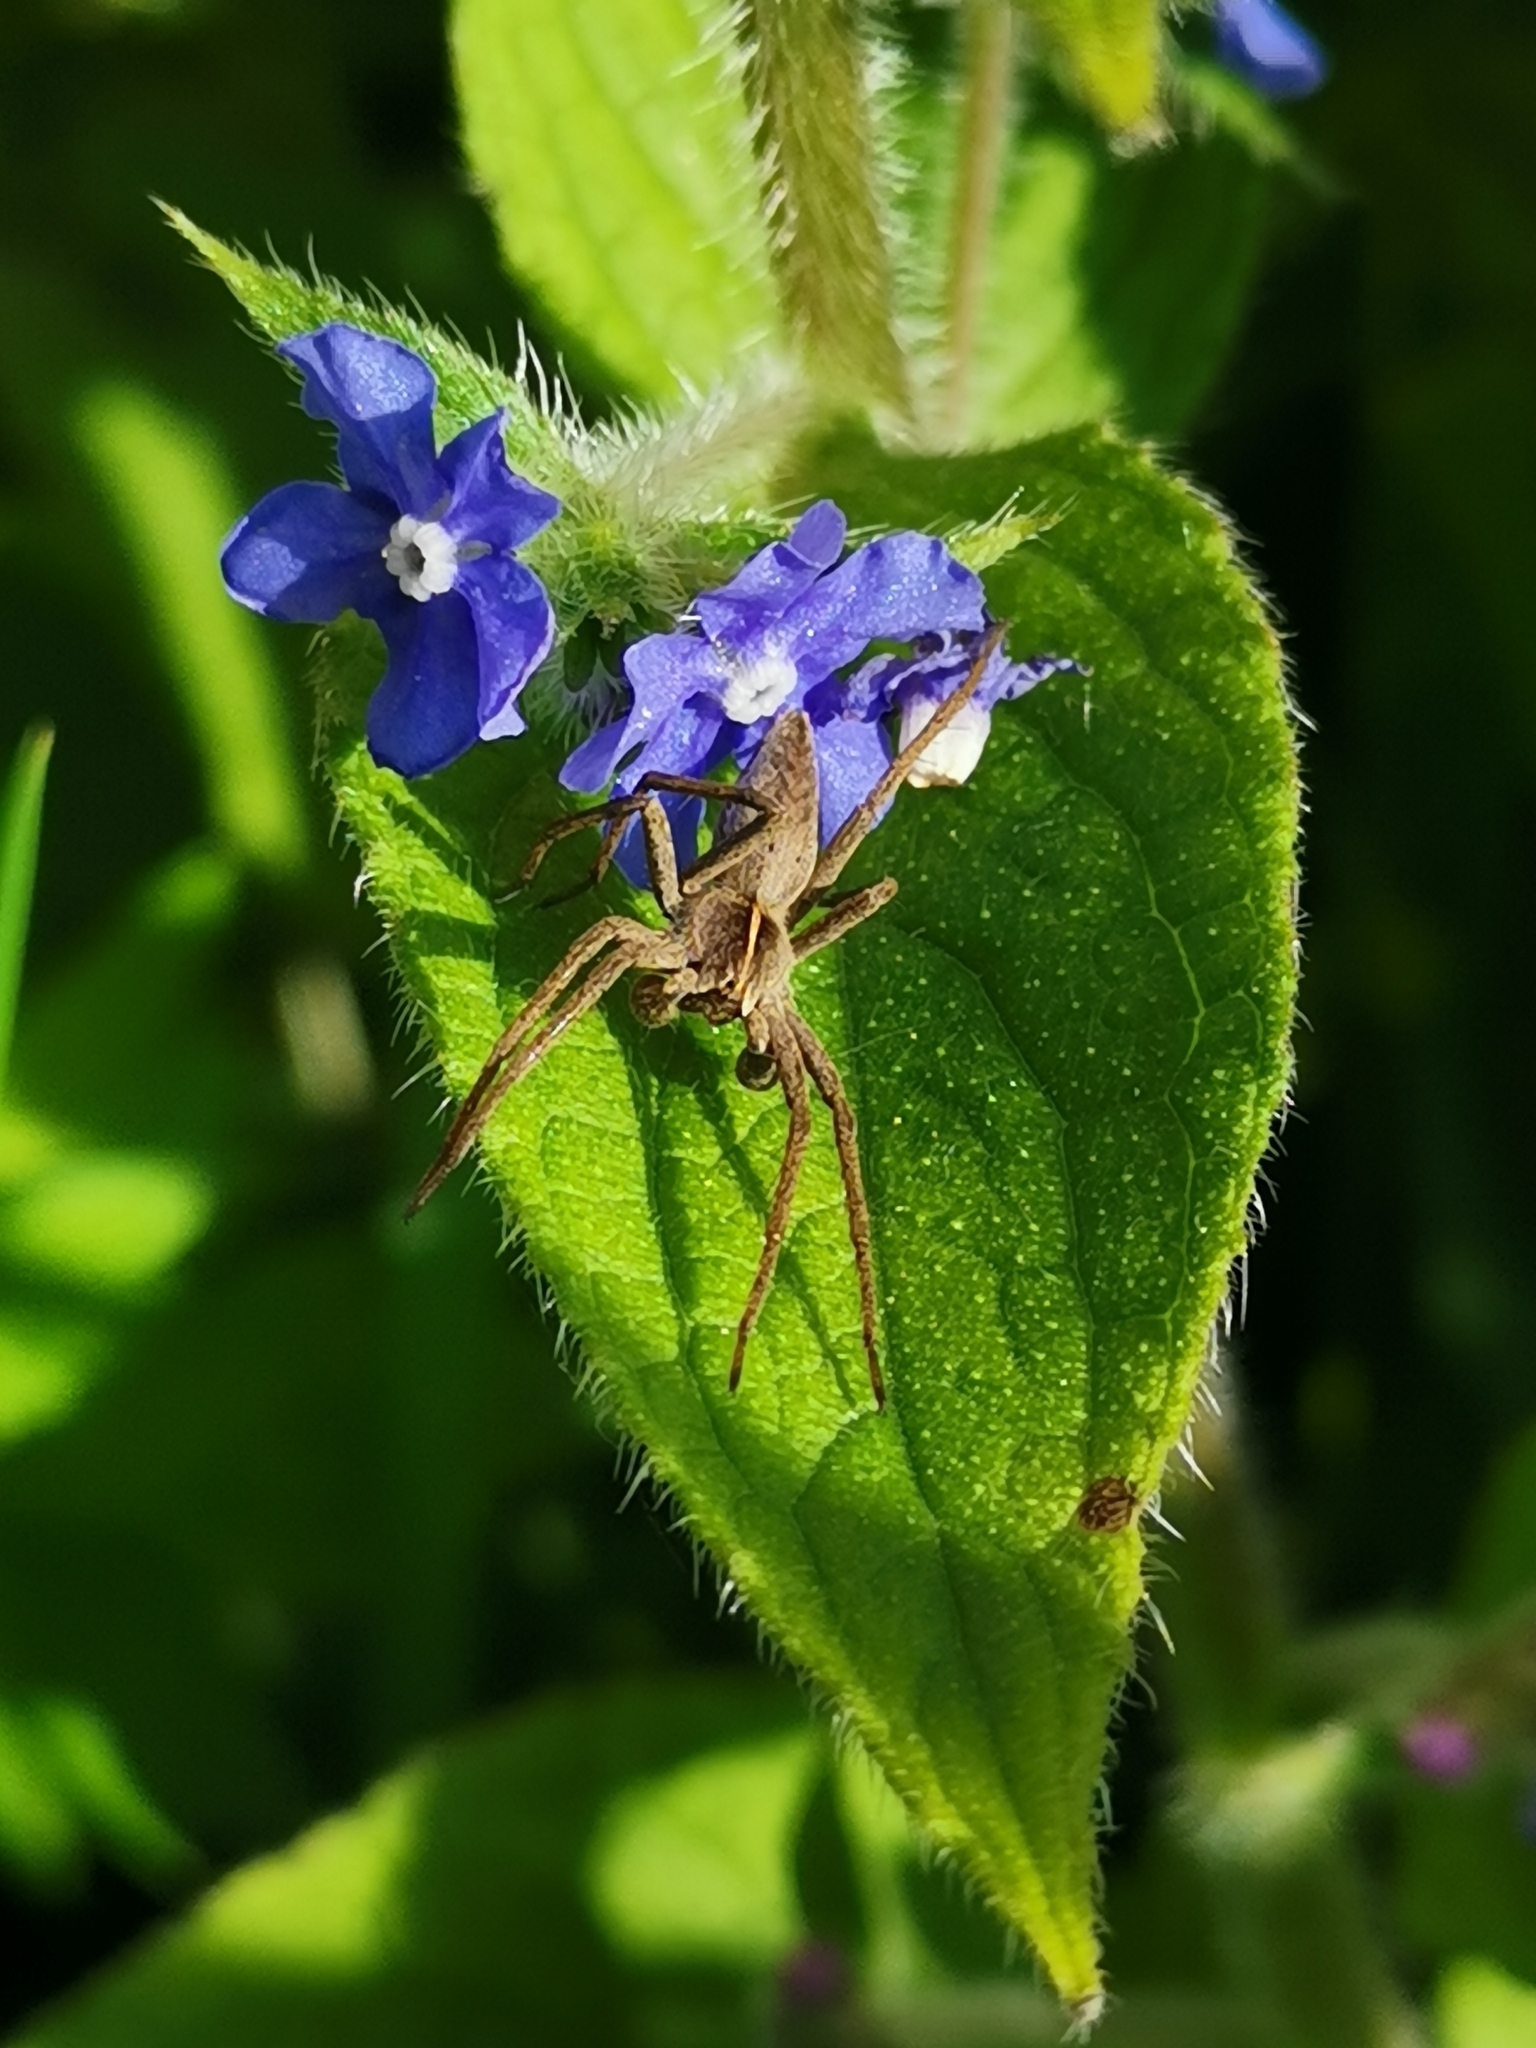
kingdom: Animalia
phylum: Arthropoda
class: Arachnida
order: Araneae
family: Pisauridae
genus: Pisaura
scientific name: Pisaura mirabilis
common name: Tent spider
